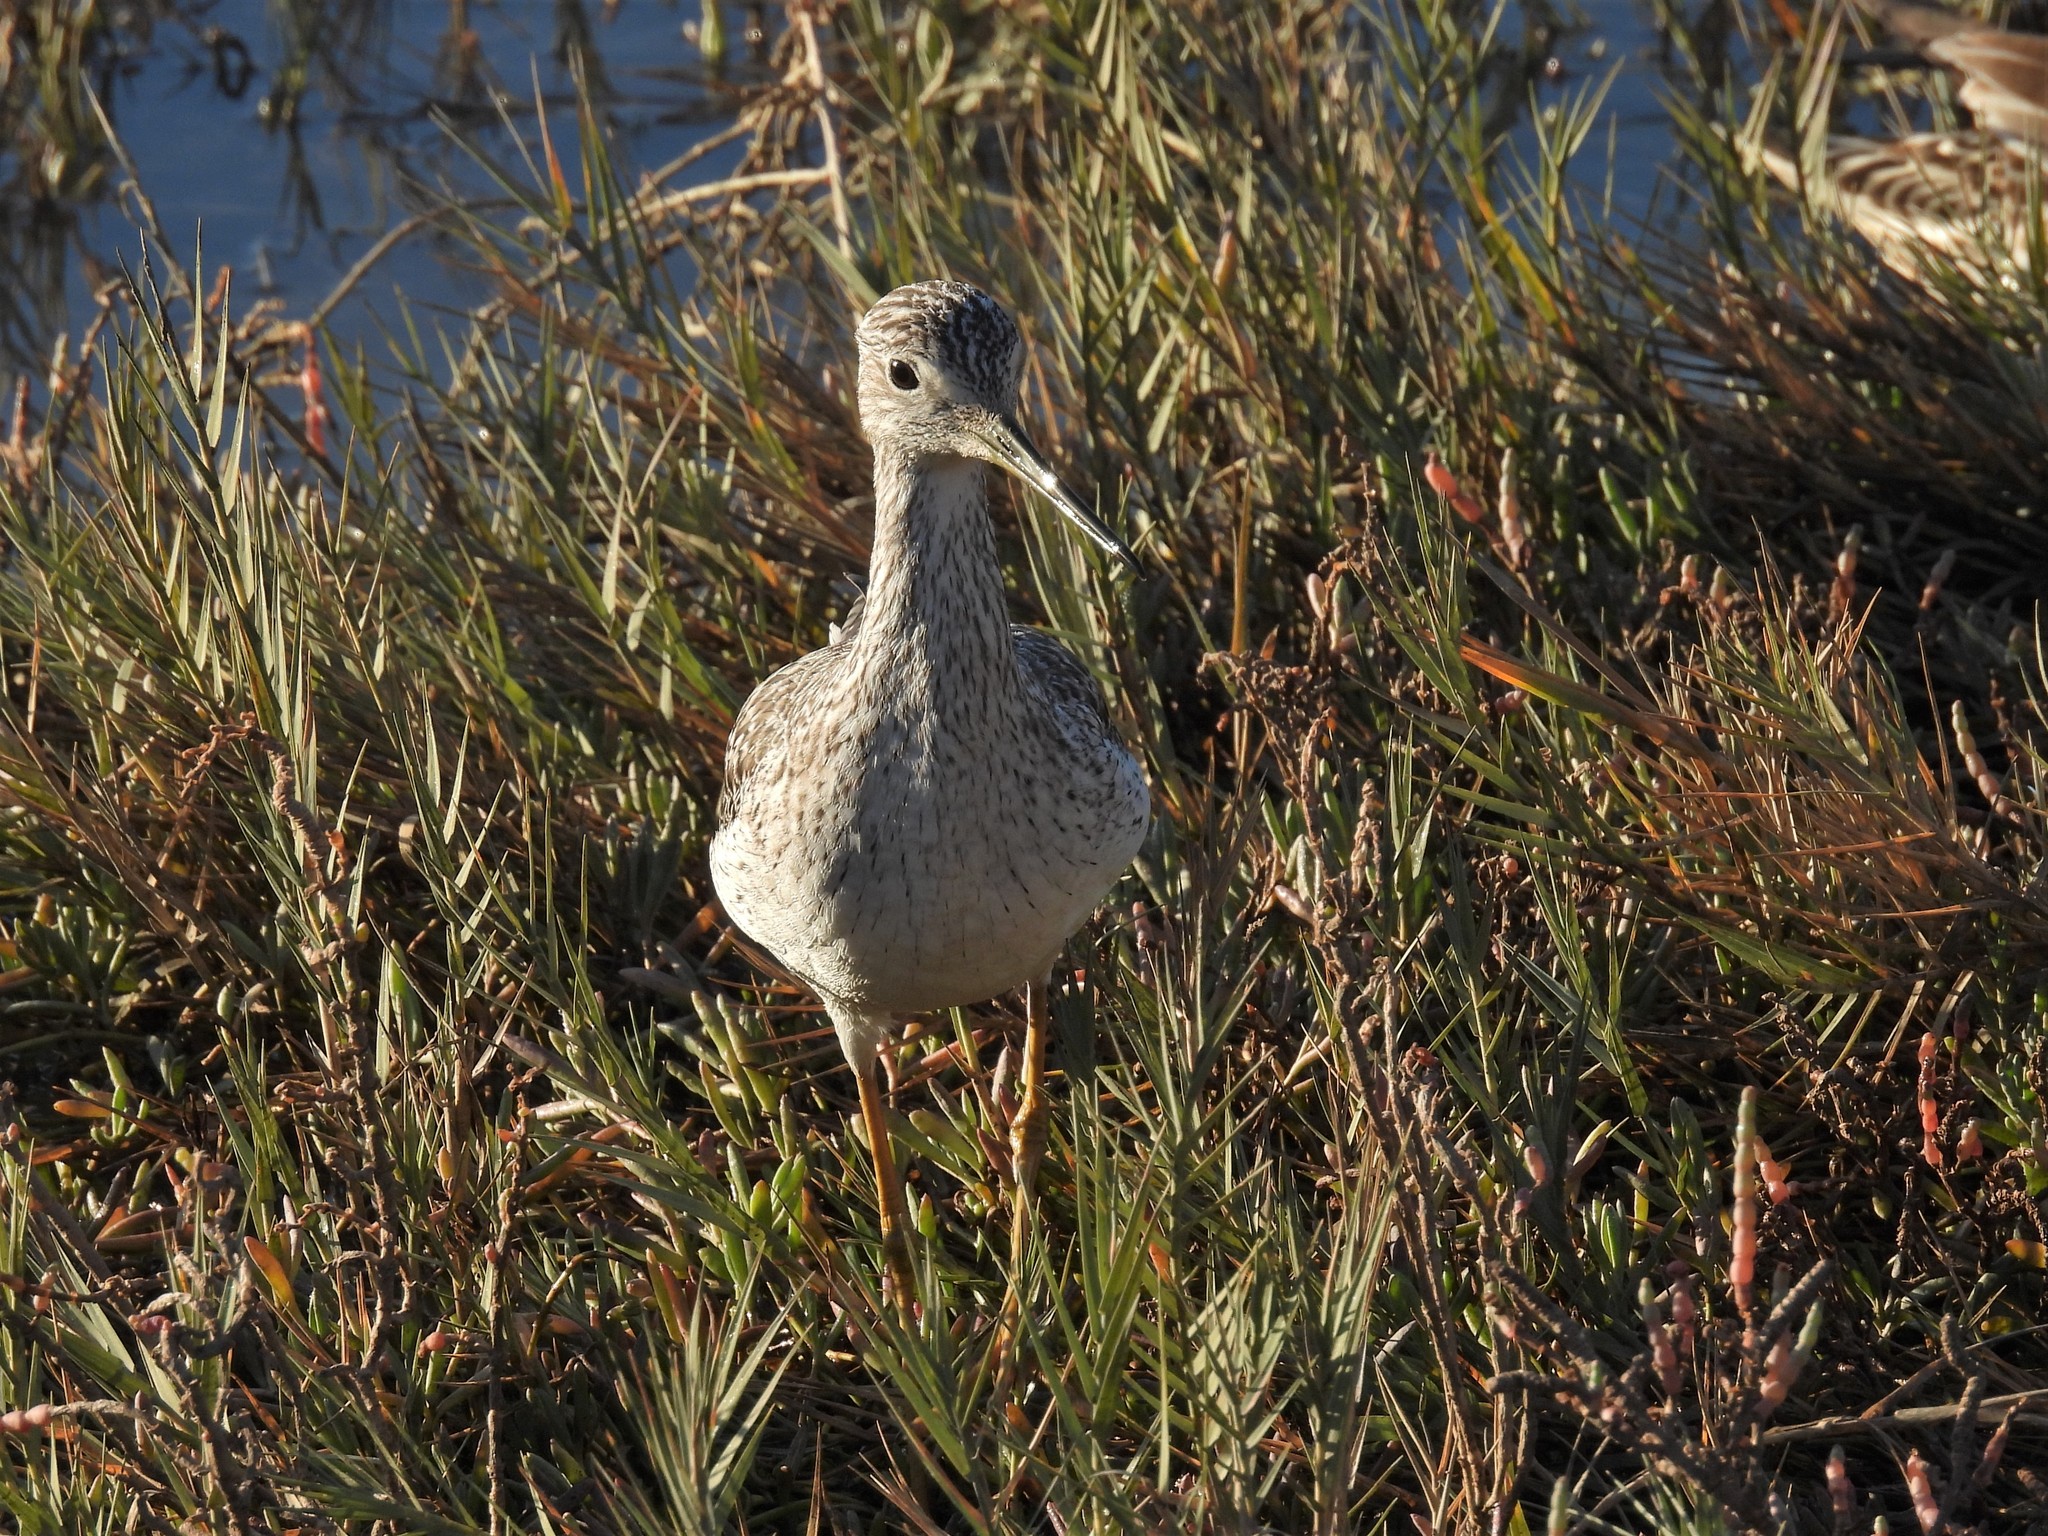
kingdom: Animalia
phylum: Chordata
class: Aves
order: Charadriiformes
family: Scolopacidae
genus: Tringa
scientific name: Tringa melanoleuca
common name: Greater yellowlegs
